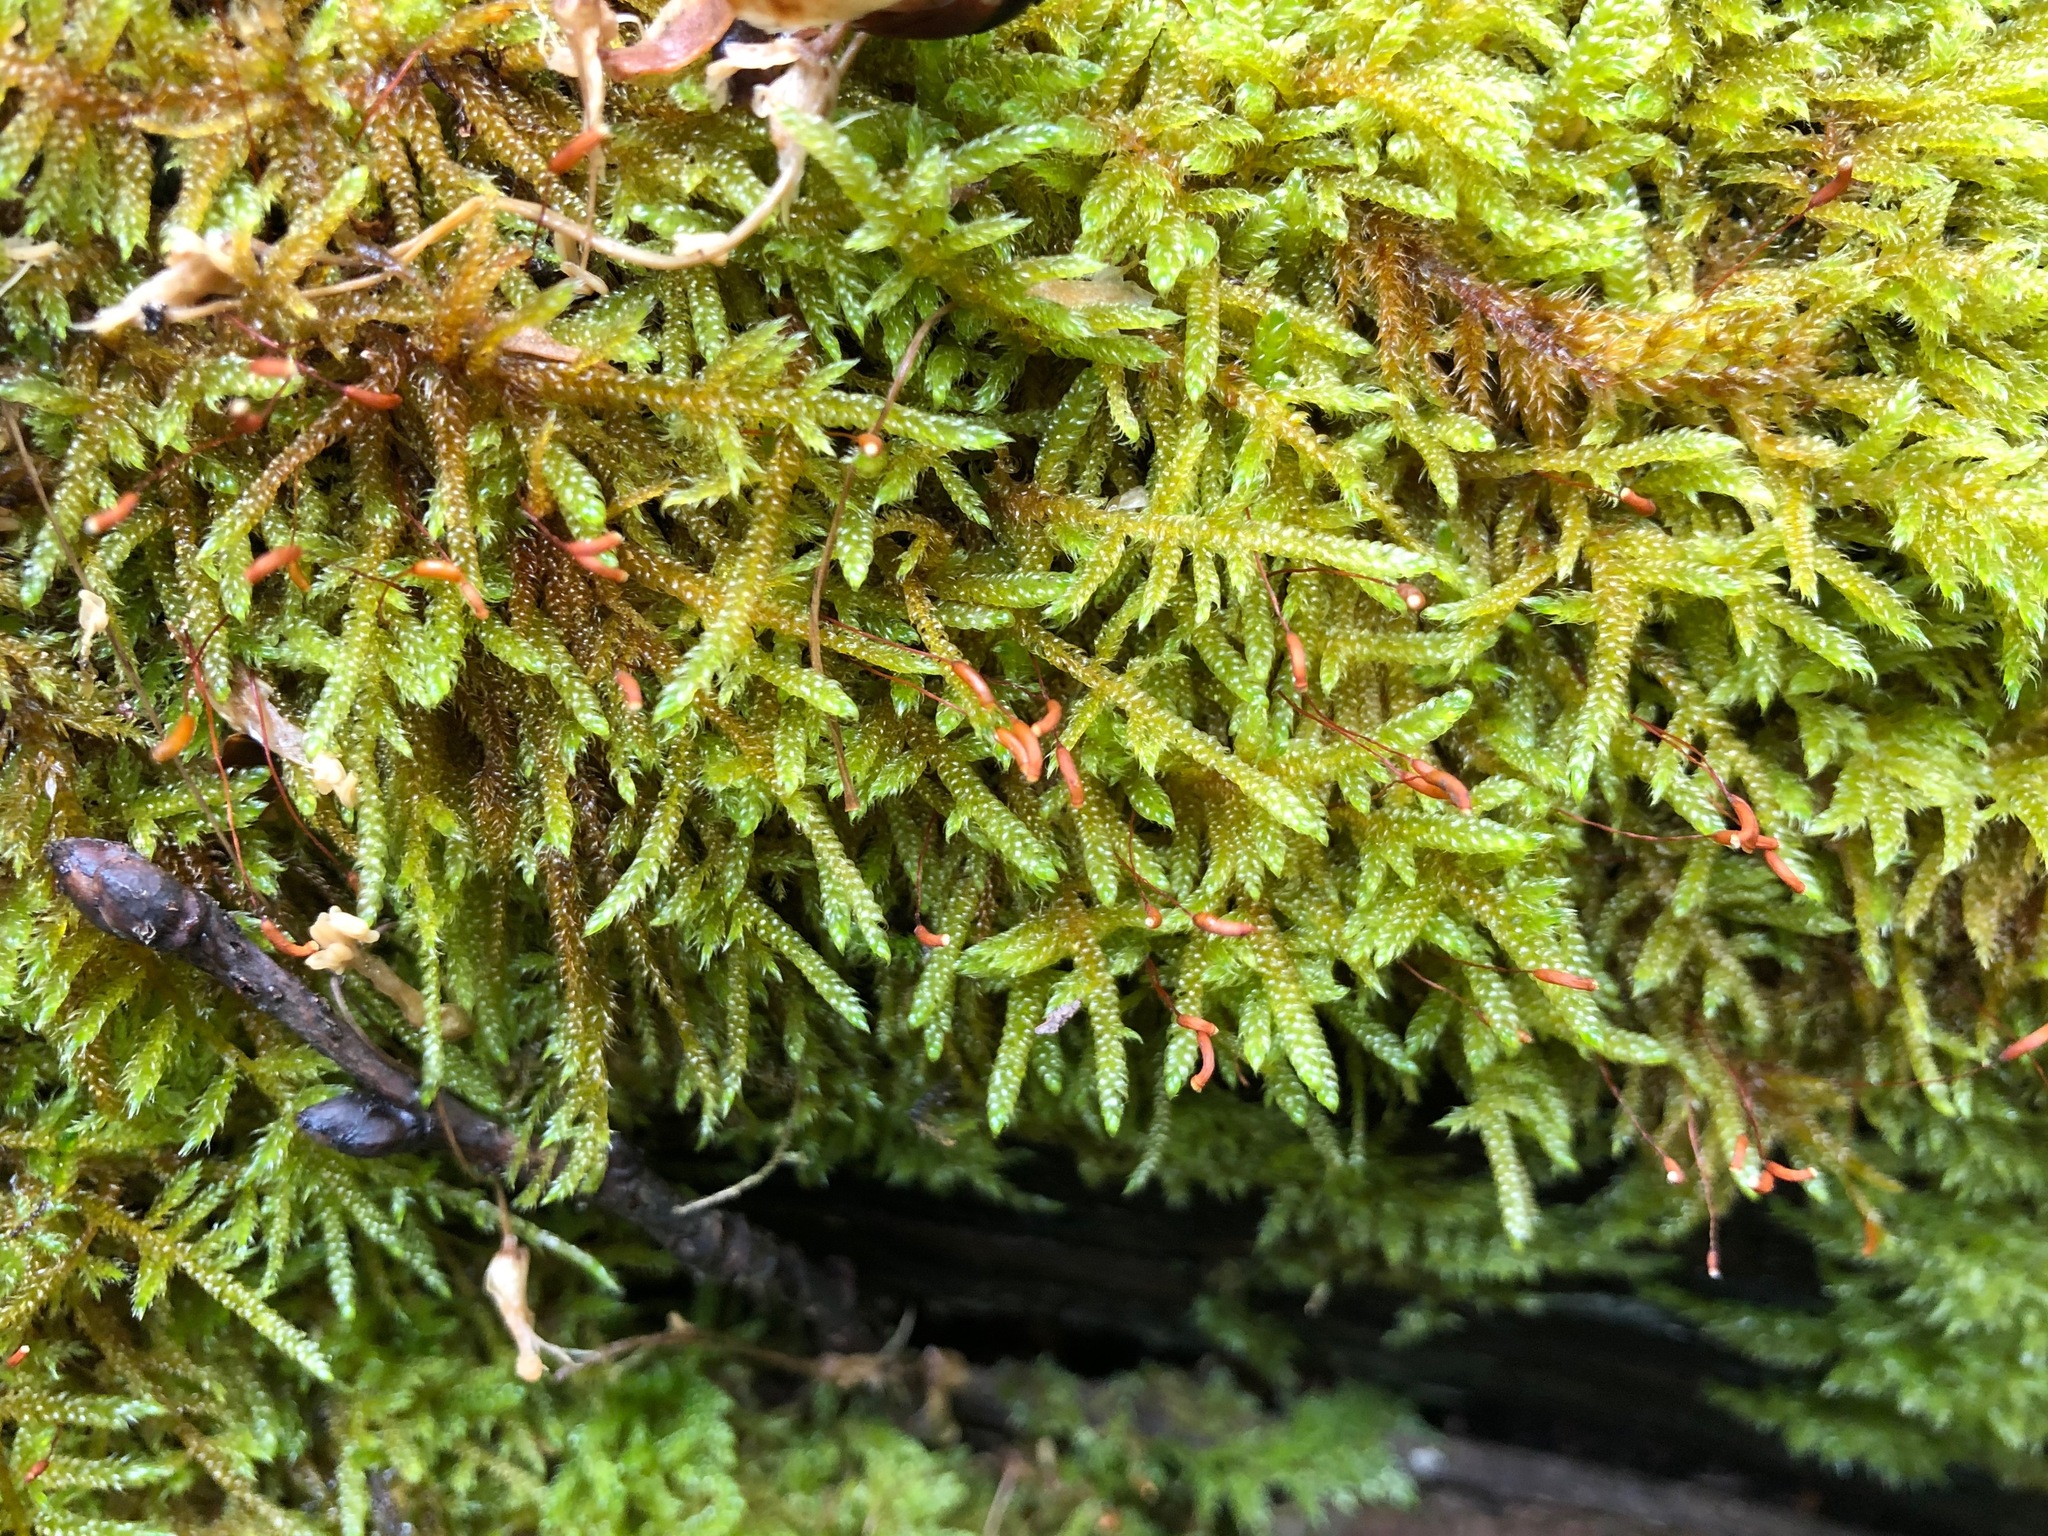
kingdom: Plantae
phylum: Bryophyta
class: Bryopsida
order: Hypnales
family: Hypnaceae
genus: Hypnum
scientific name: Hypnum cupressiforme
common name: Cypress-leaved plait-moss
